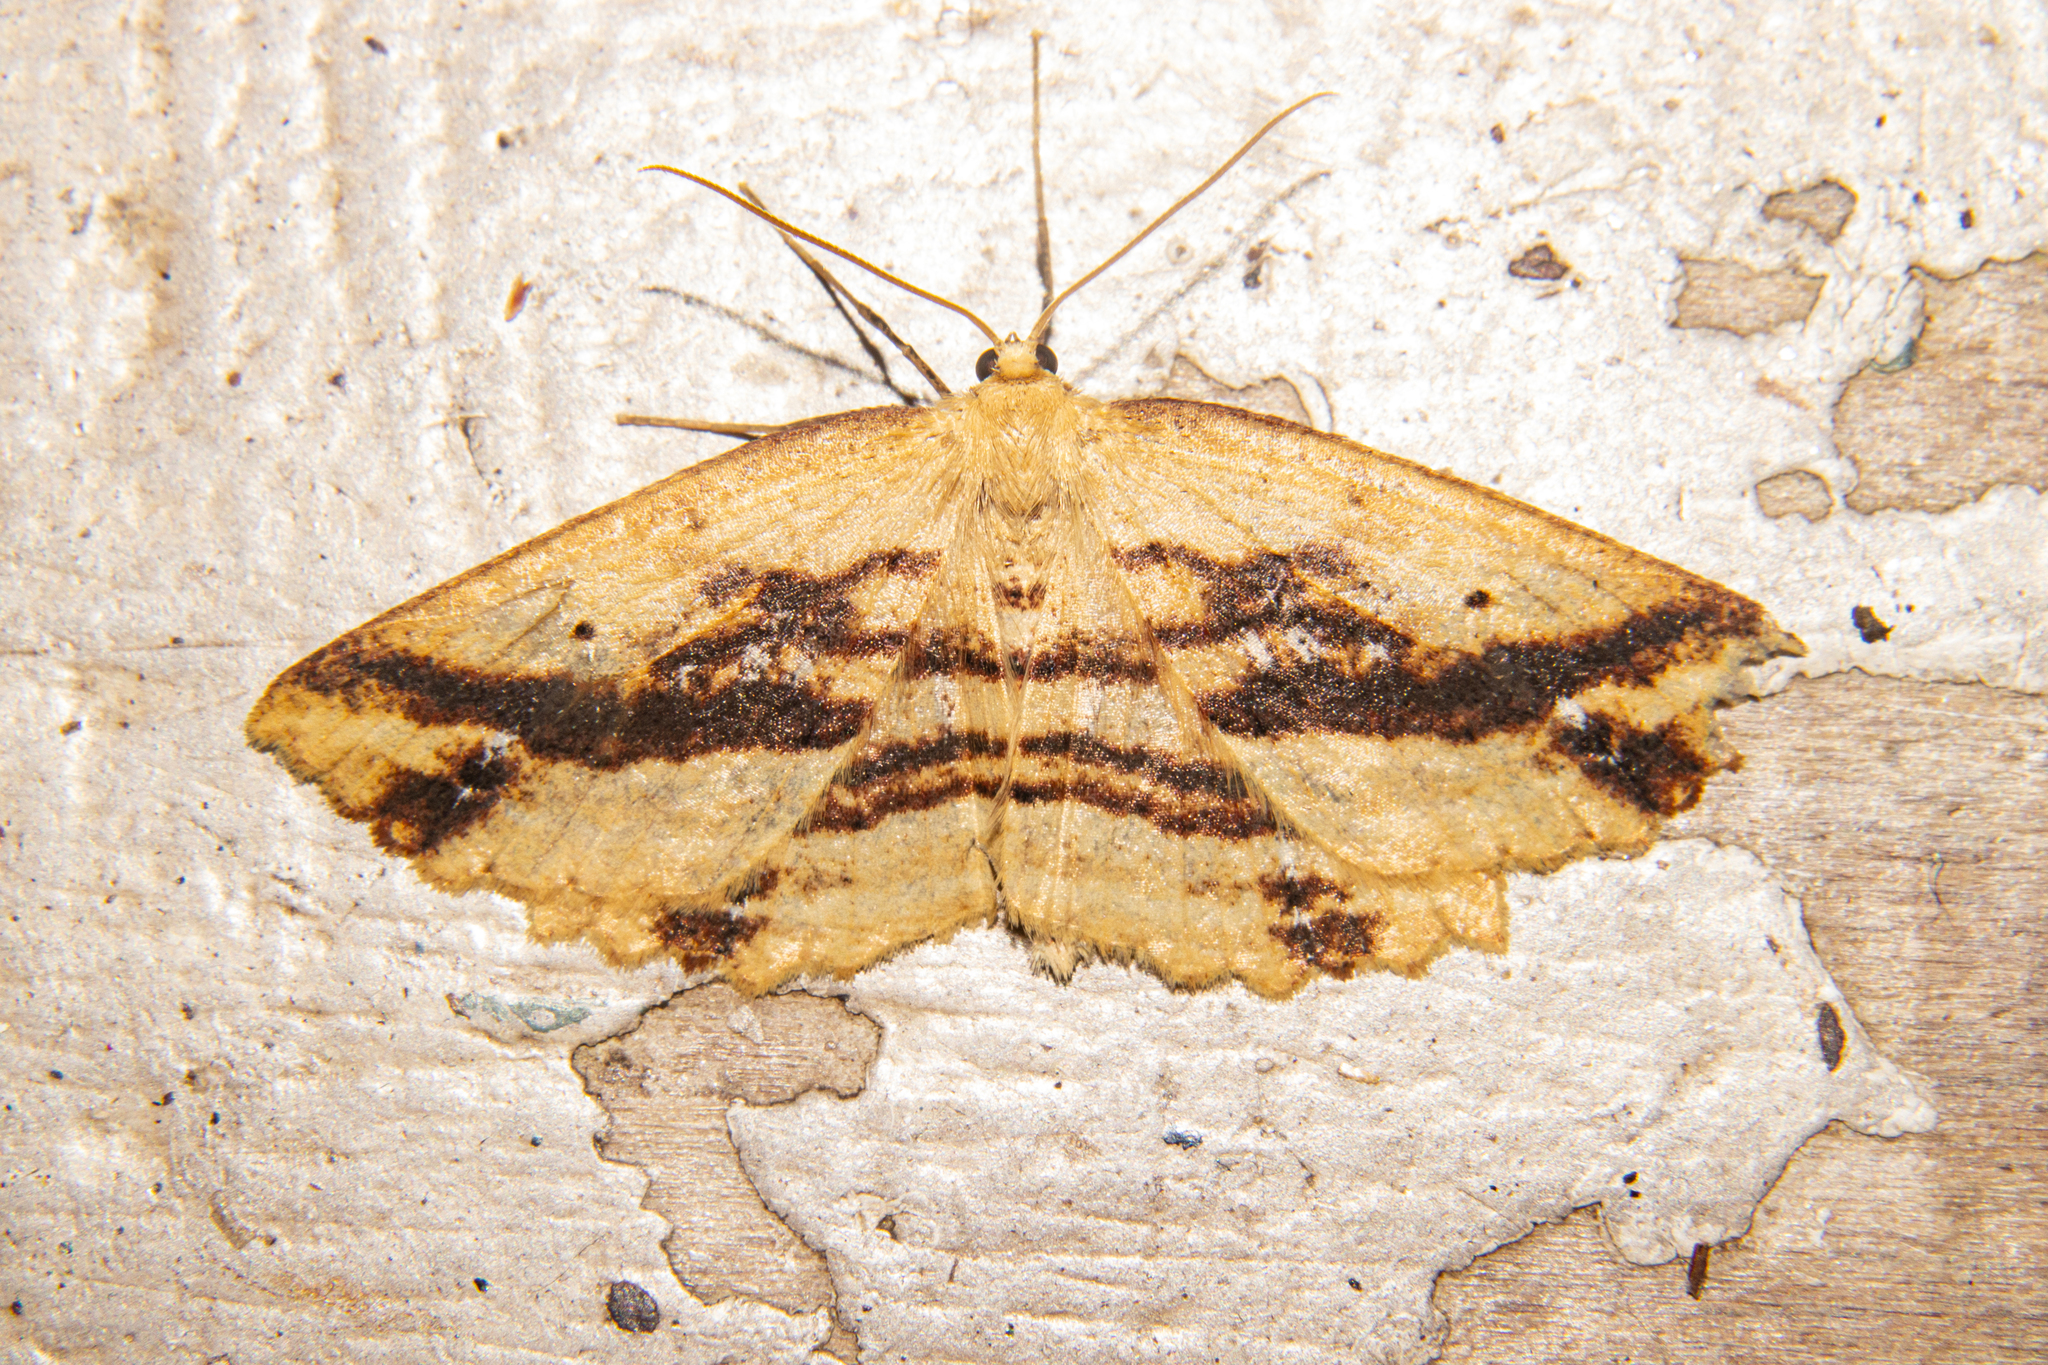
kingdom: Animalia
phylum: Arthropoda
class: Insecta
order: Lepidoptera
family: Geometridae
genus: Xyridacma
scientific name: Xyridacma veronicae
